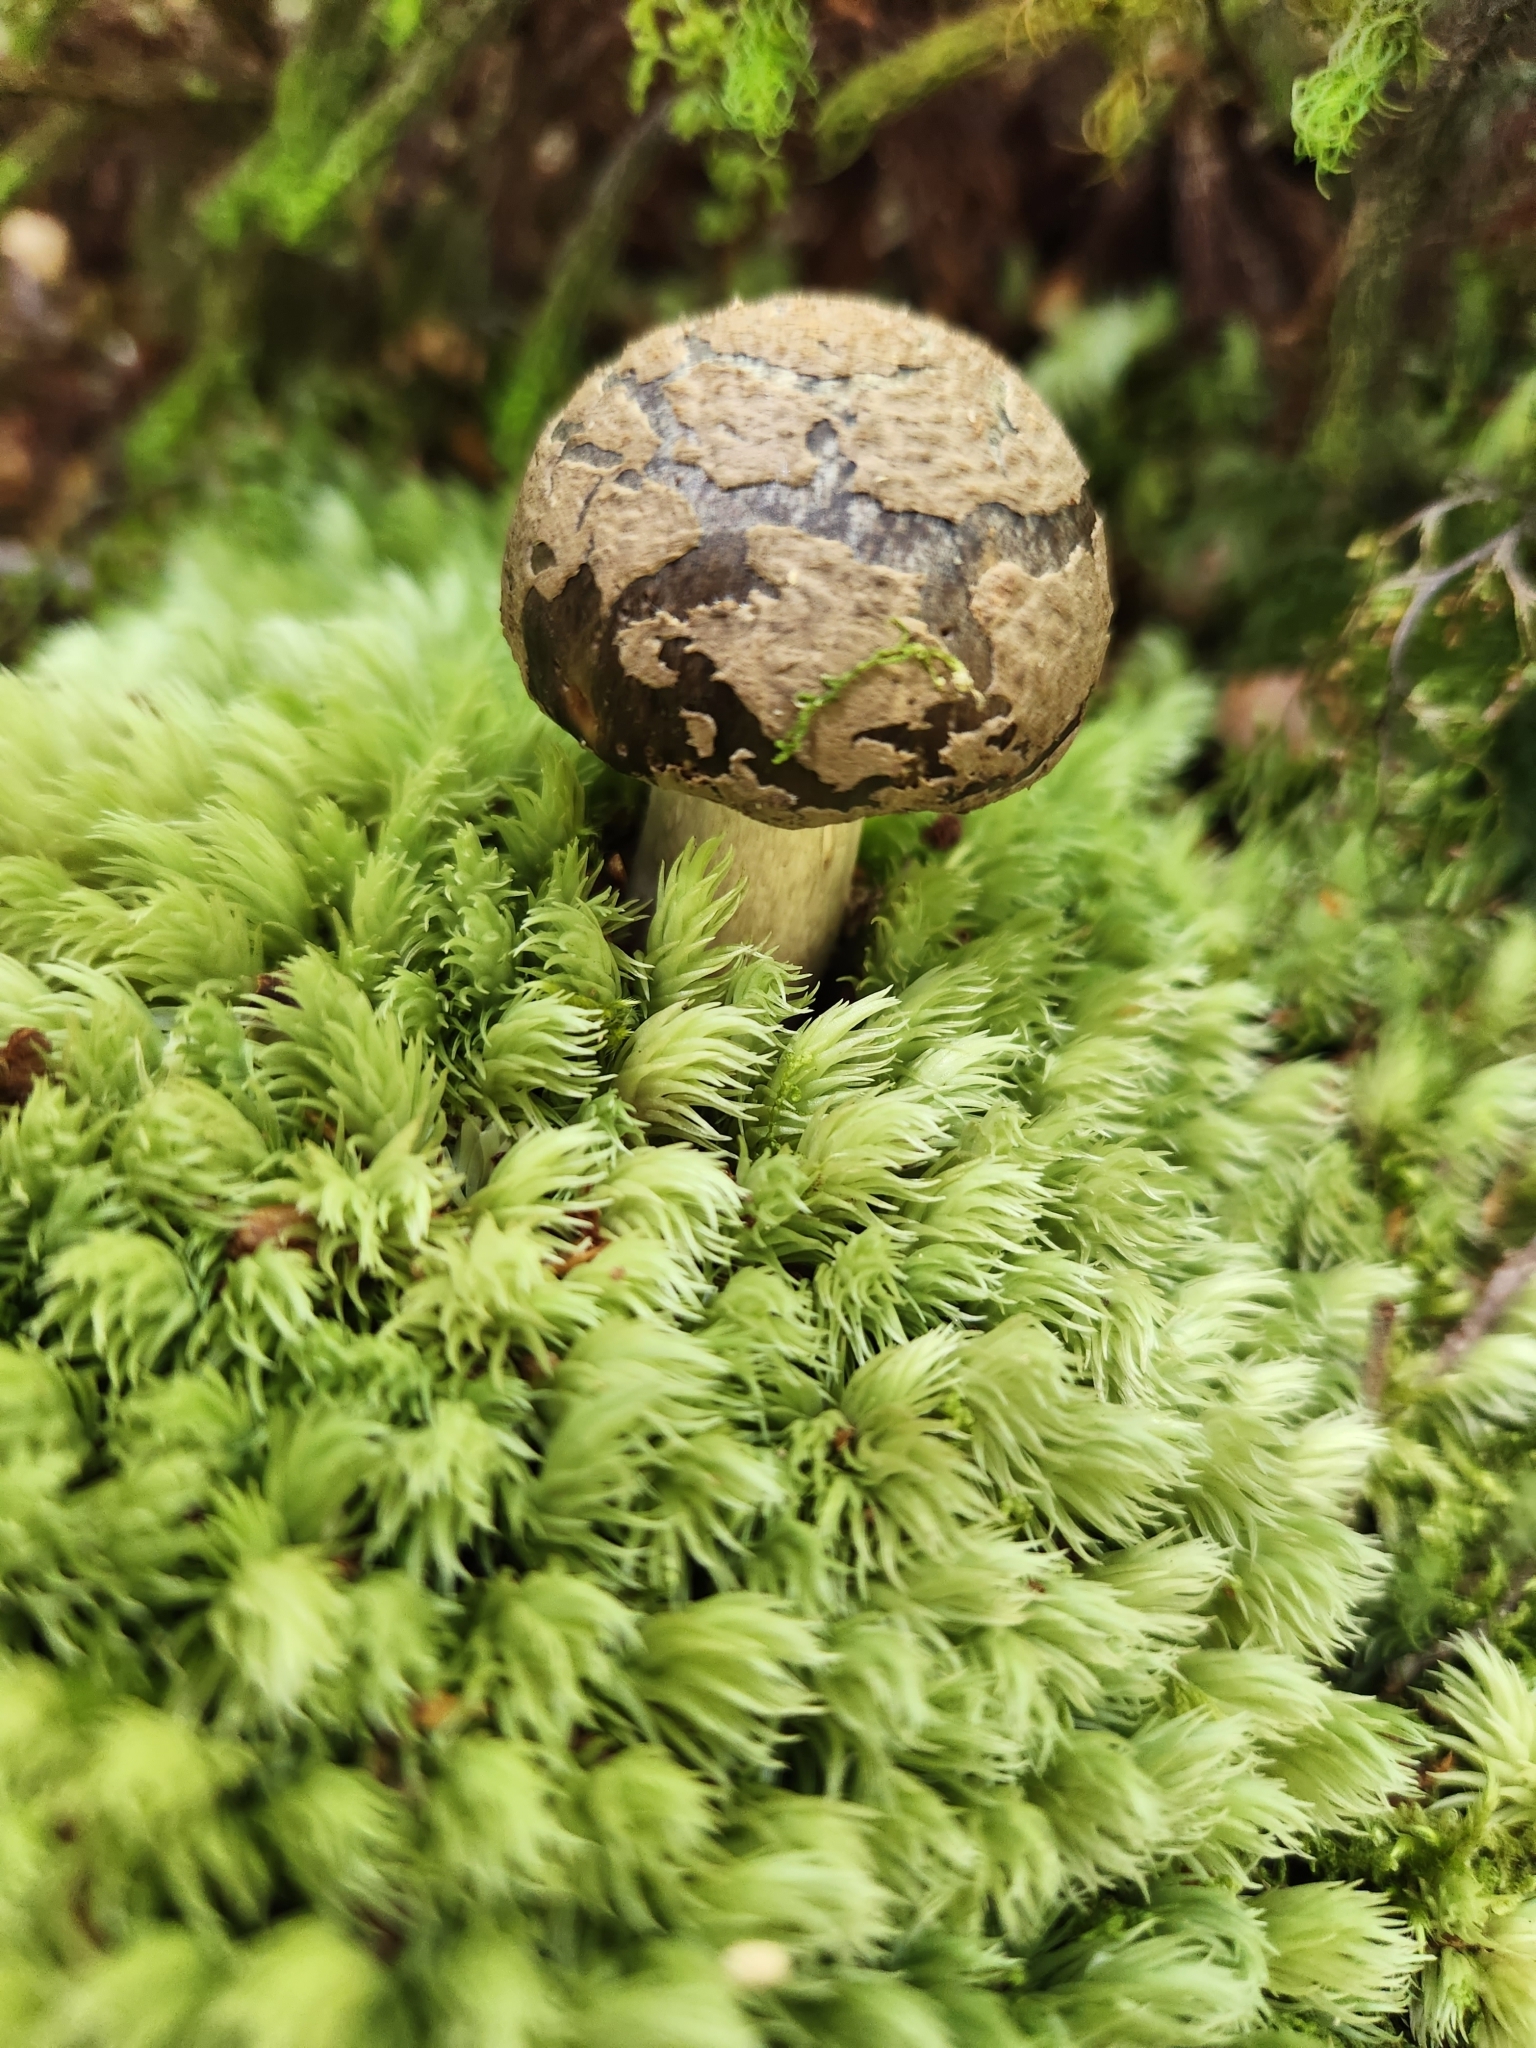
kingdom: Fungi
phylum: Basidiomycota
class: Agaricomycetes
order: Agaricales
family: Amanitaceae
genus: Amanita
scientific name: Amanita nothofagi
